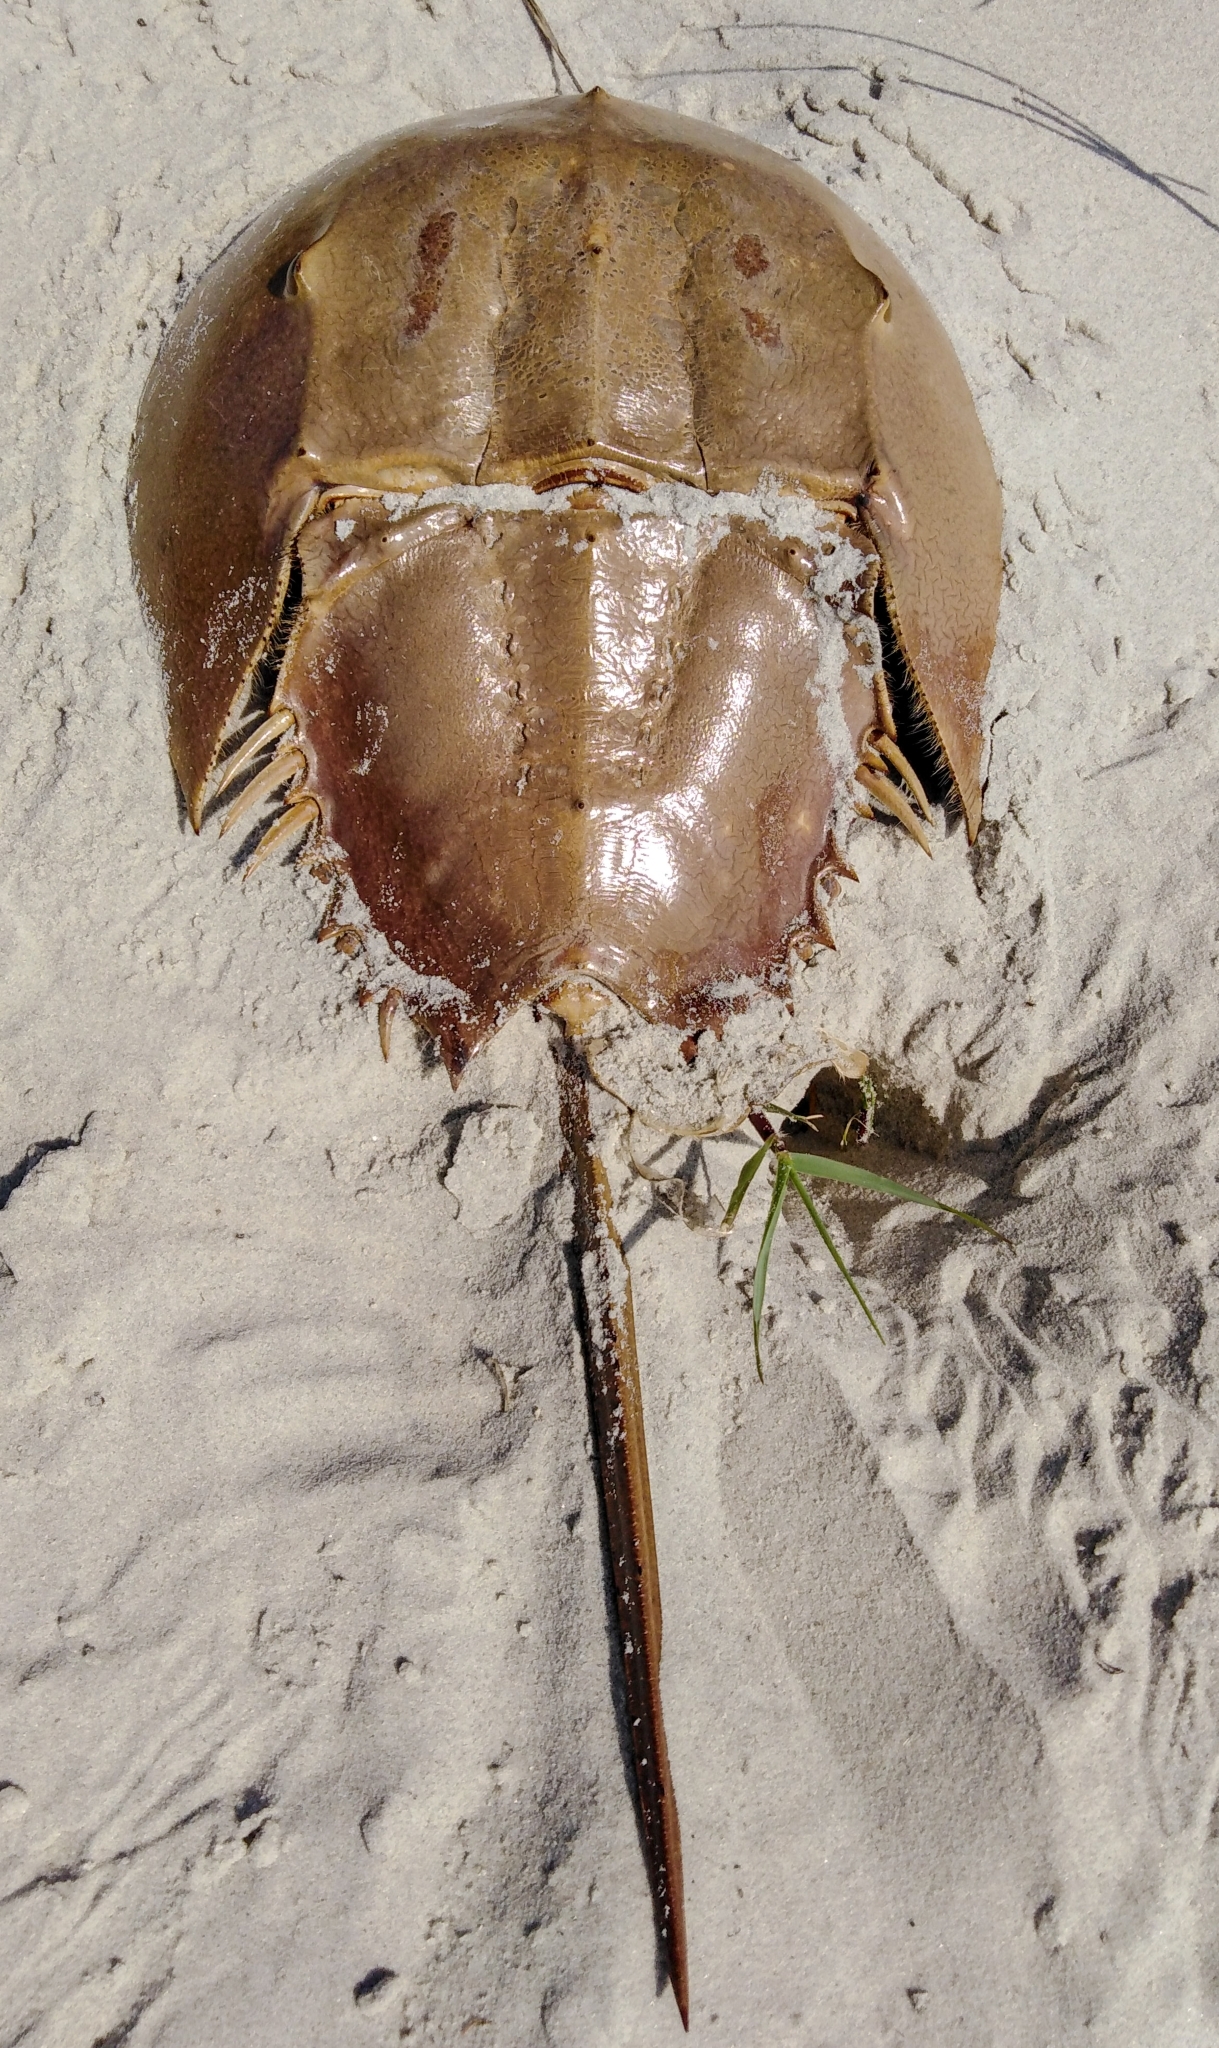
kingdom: Animalia
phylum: Arthropoda
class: Merostomata
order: Xiphosurida
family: Limulidae
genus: Limulus
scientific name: Limulus polyphemus
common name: Horseshoe crab
